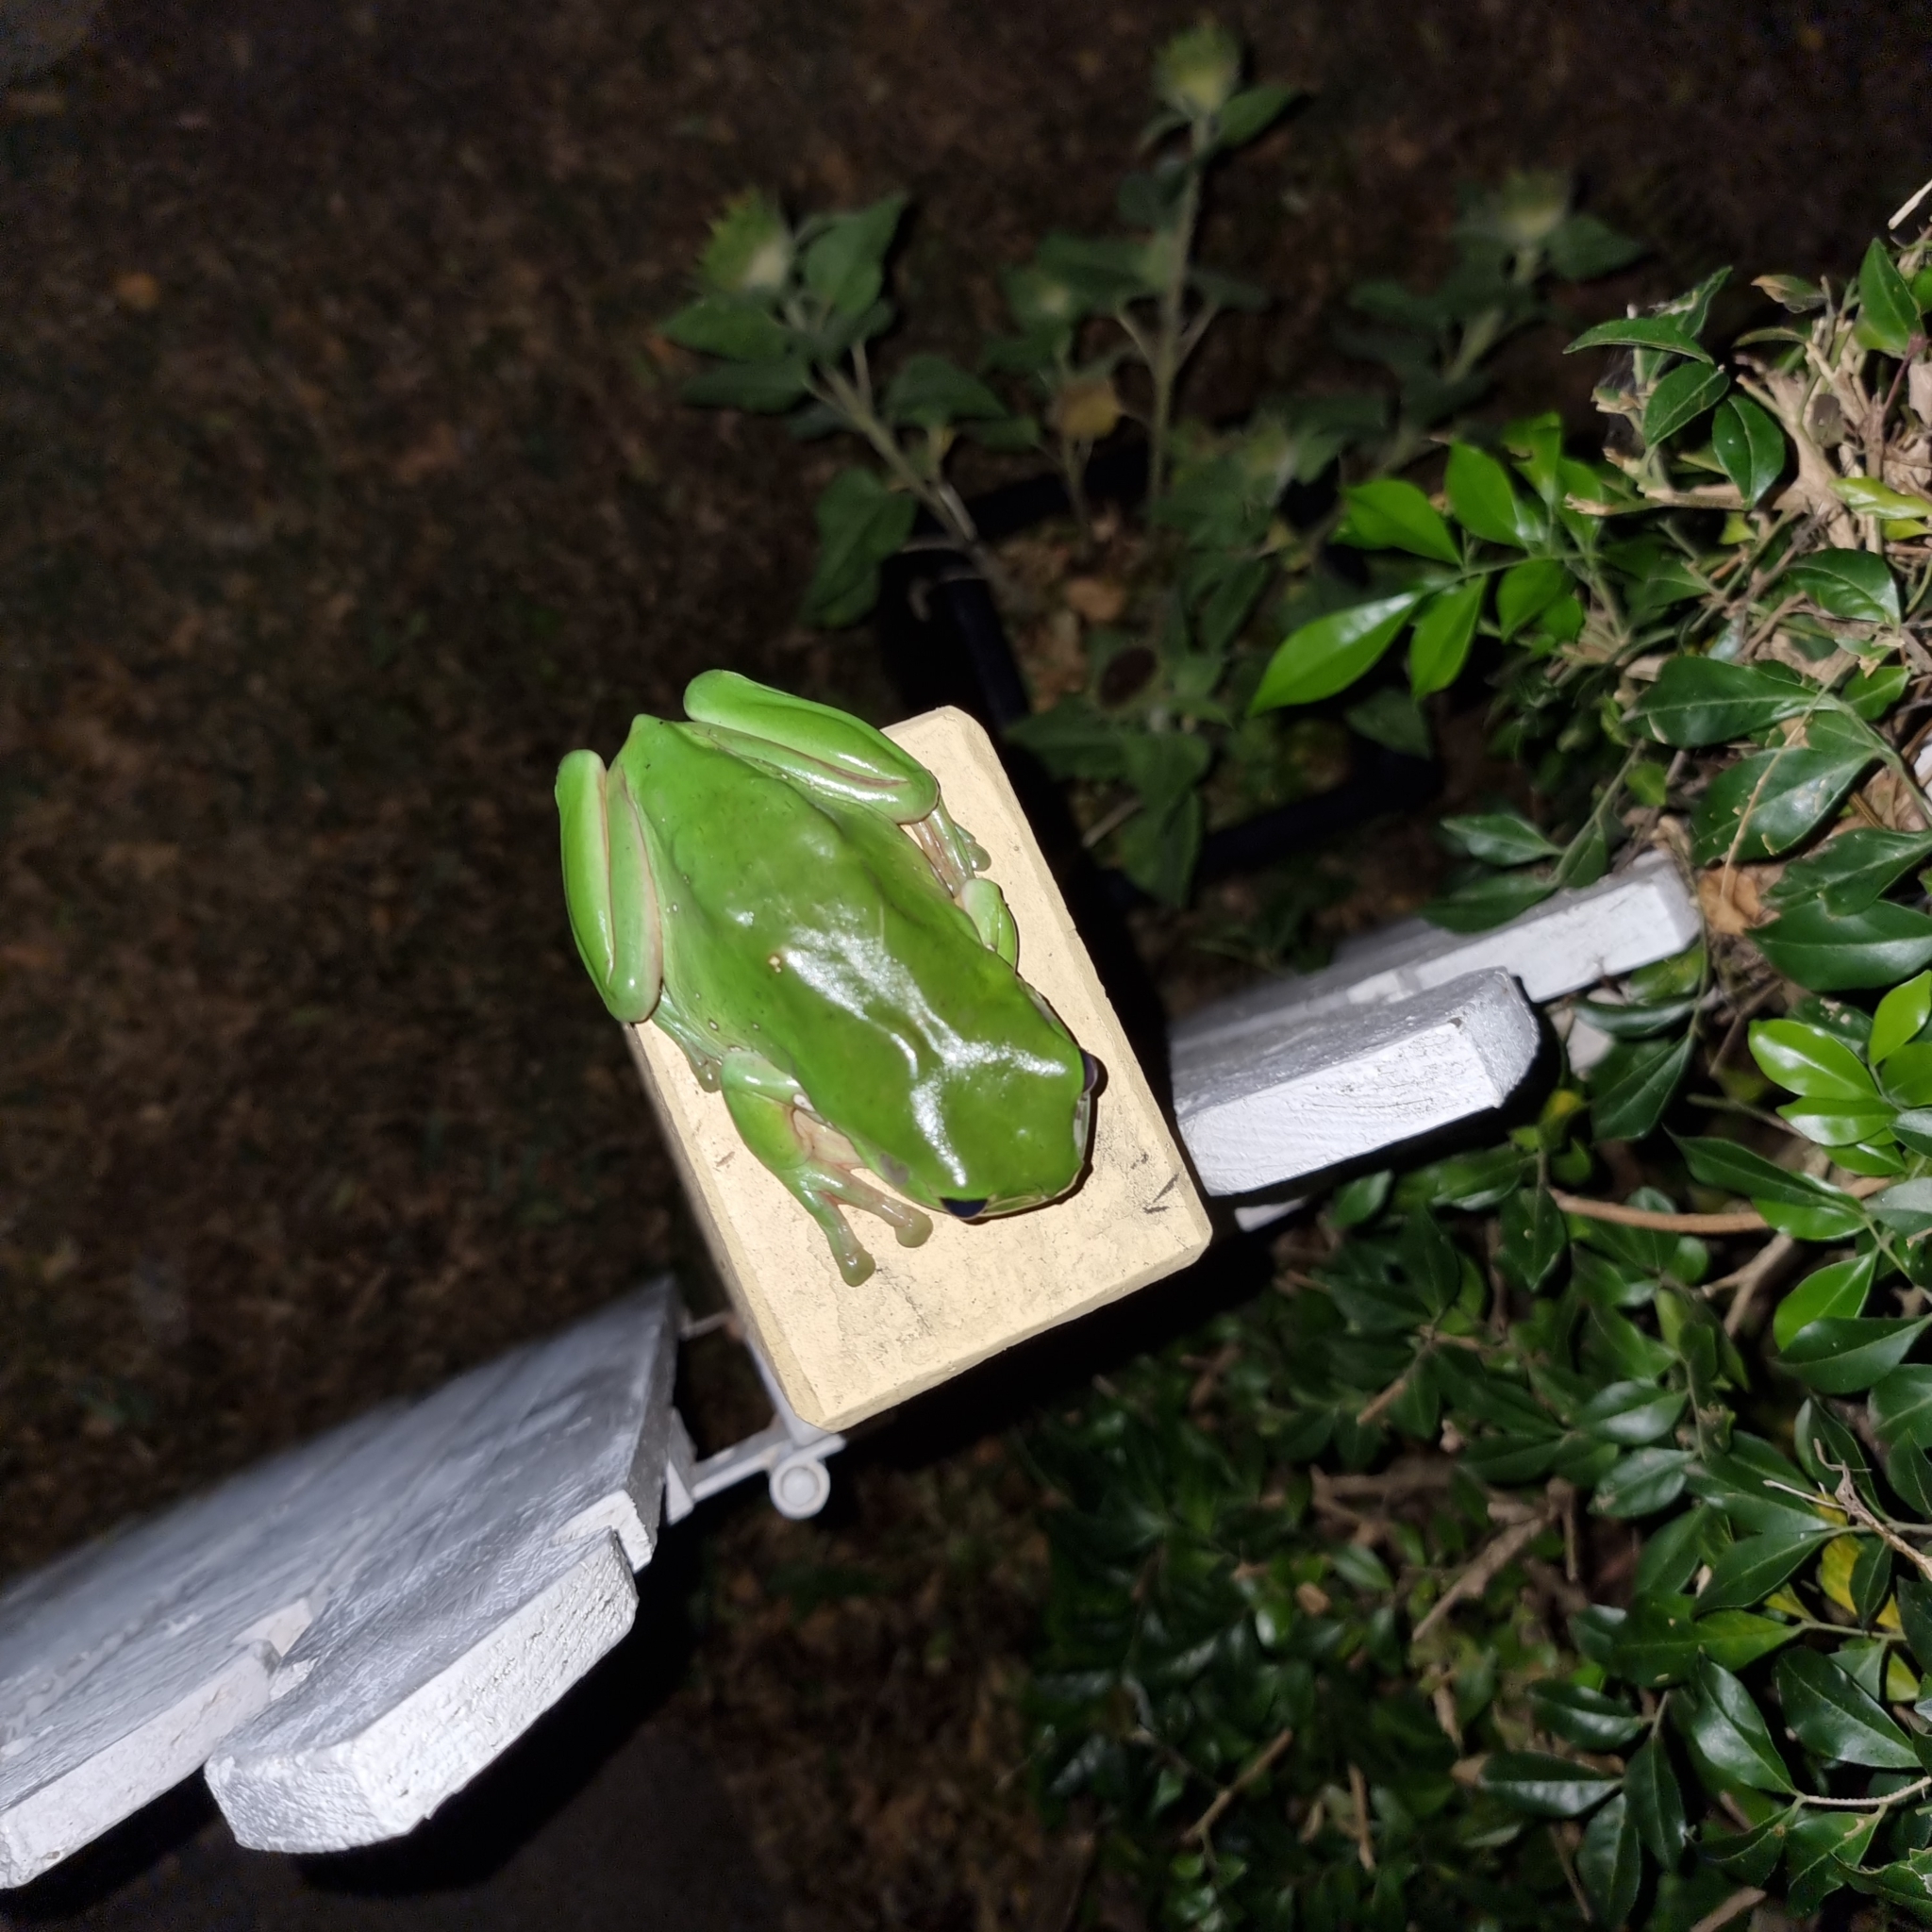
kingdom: Animalia
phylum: Chordata
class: Amphibia
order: Anura
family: Pelodryadidae
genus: Ranoidea
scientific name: Ranoidea caerulea
